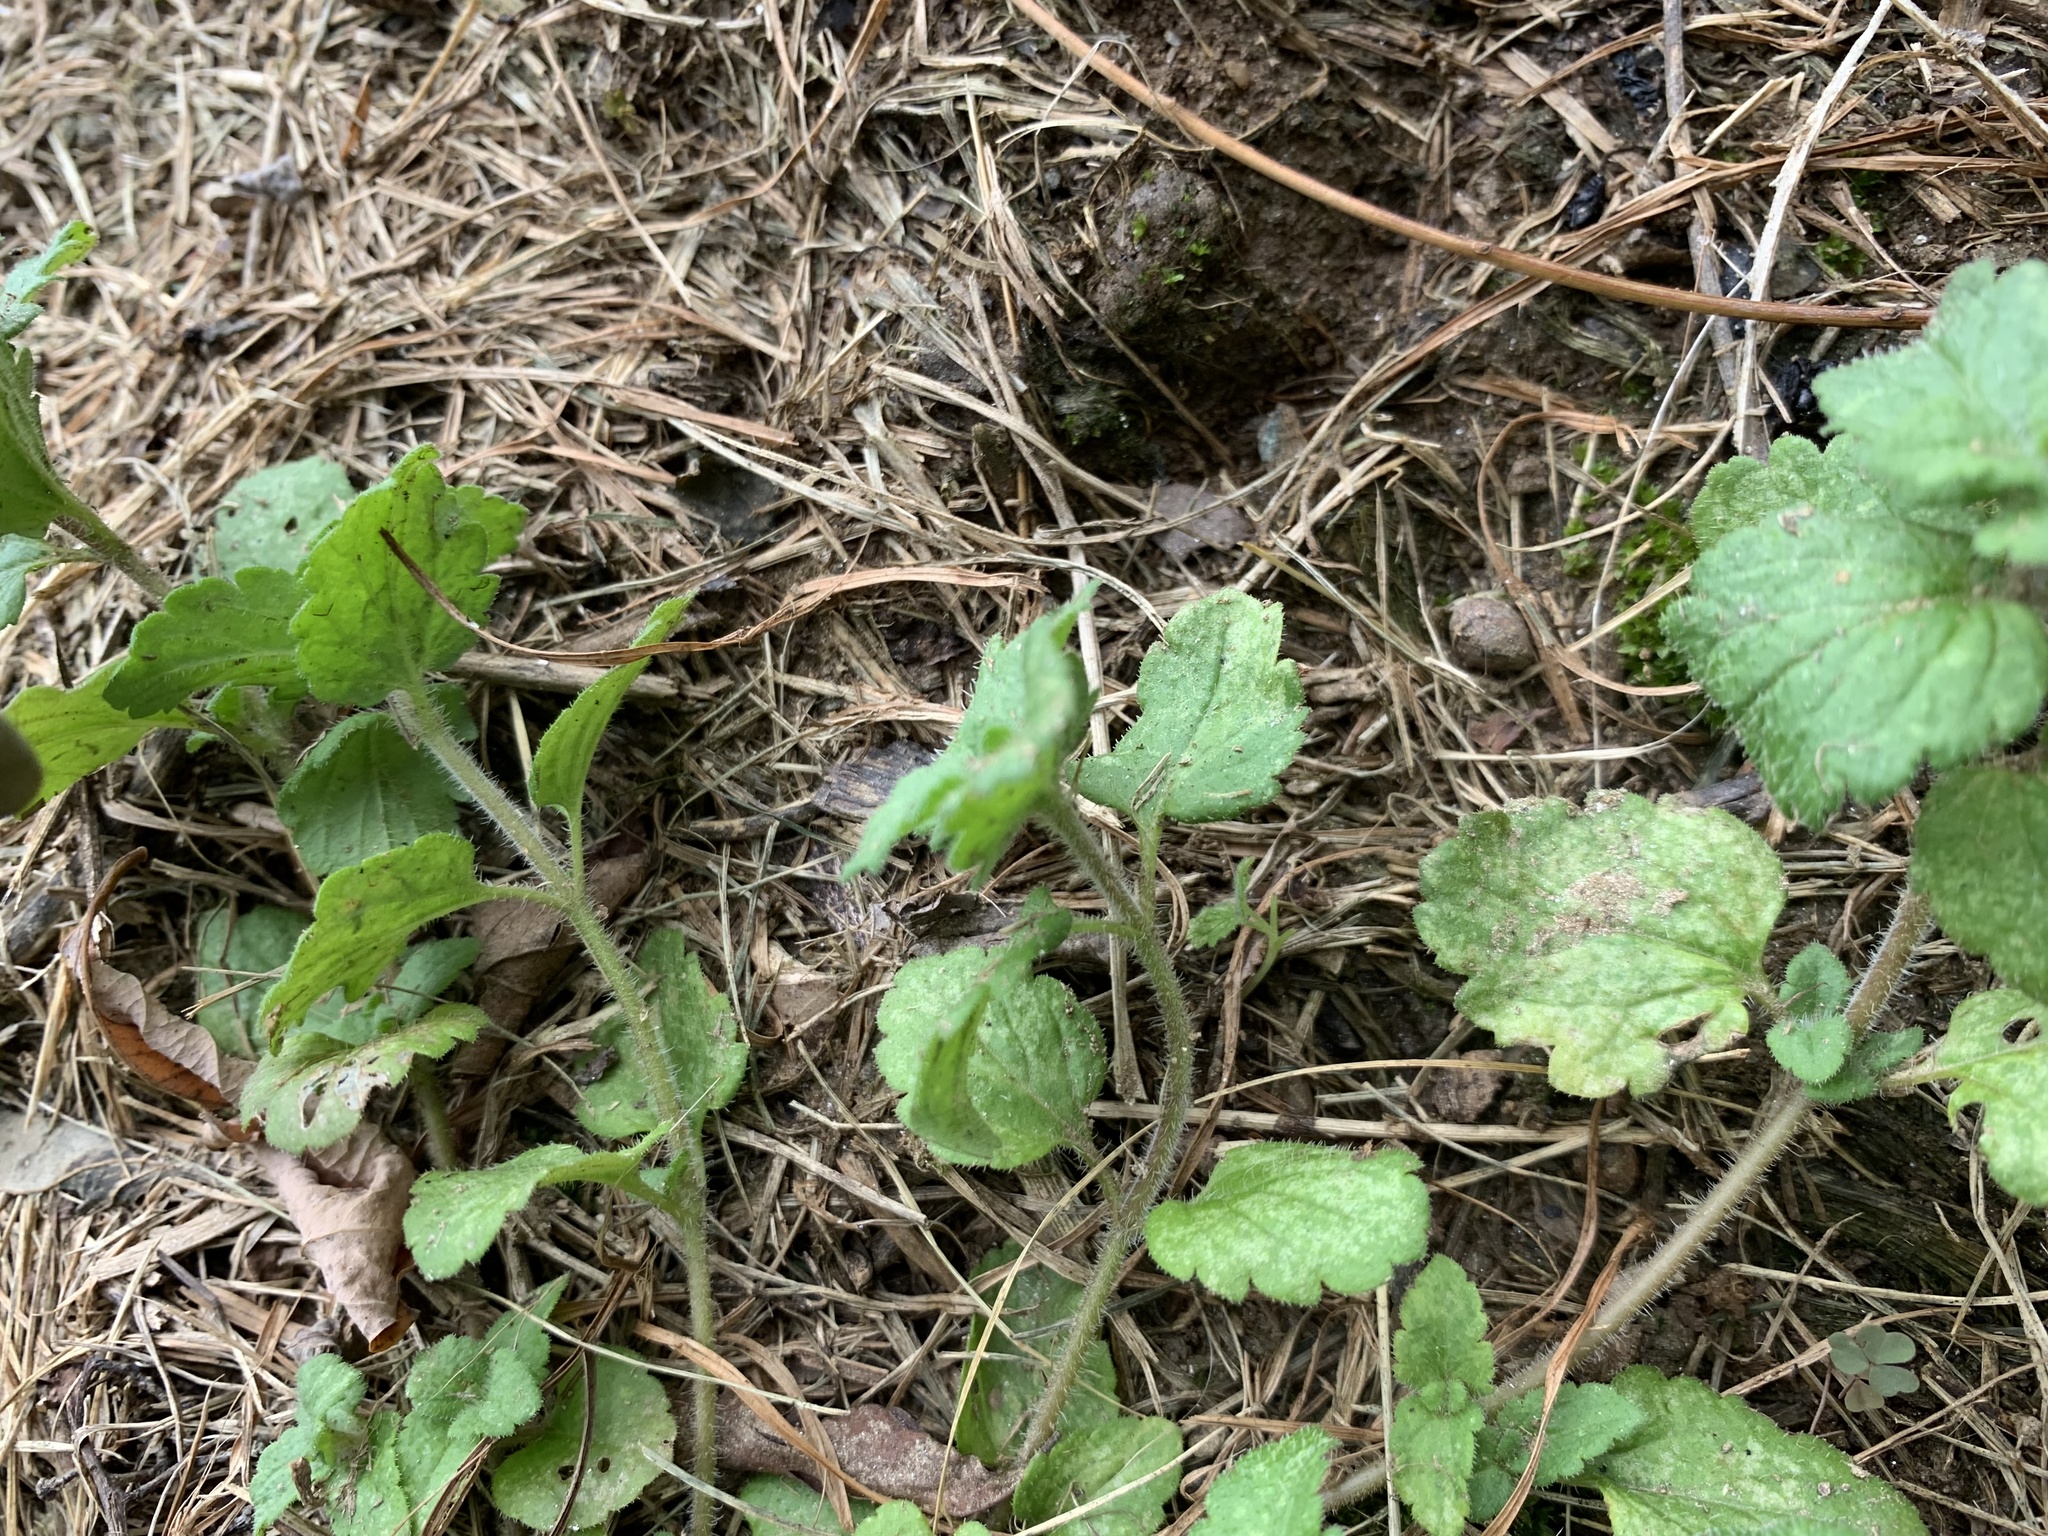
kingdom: Plantae
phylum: Tracheophyta
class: Magnoliopsida
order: Lamiales
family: Plantaginaceae
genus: Veronica
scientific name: Veronica persica
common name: Common field-speedwell
